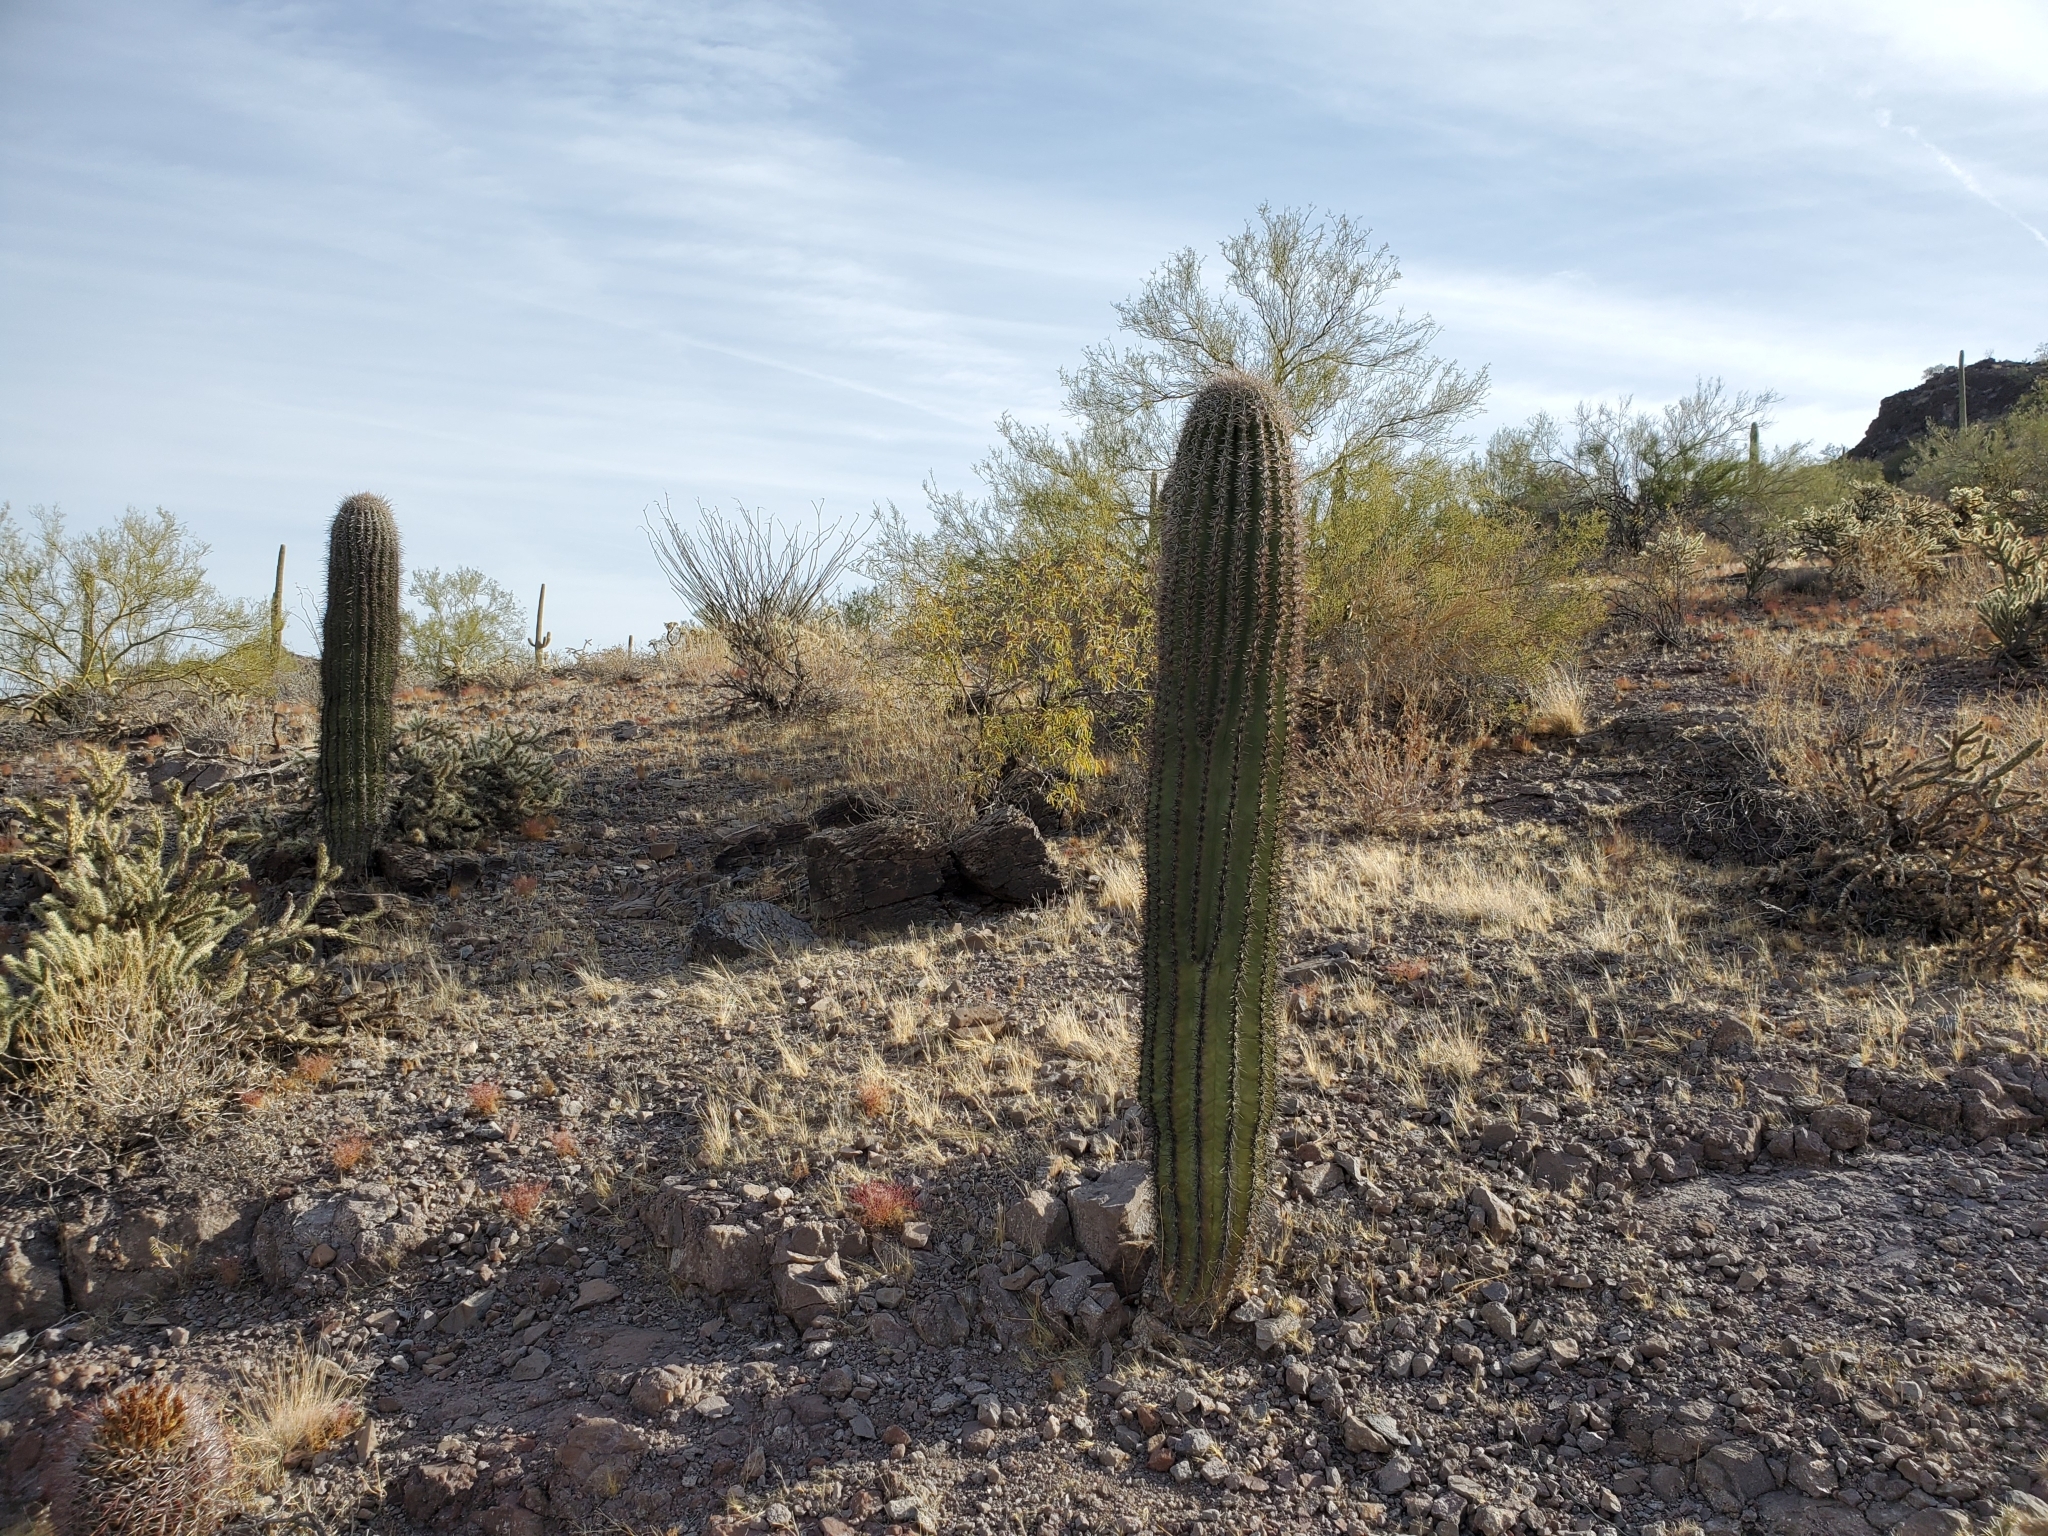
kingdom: Plantae
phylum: Tracheophyta
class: Magnoliopsida
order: Caryophyllales
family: Cactaceae
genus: Carnegiea
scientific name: Carnegiea gigantea
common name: Saguaro
